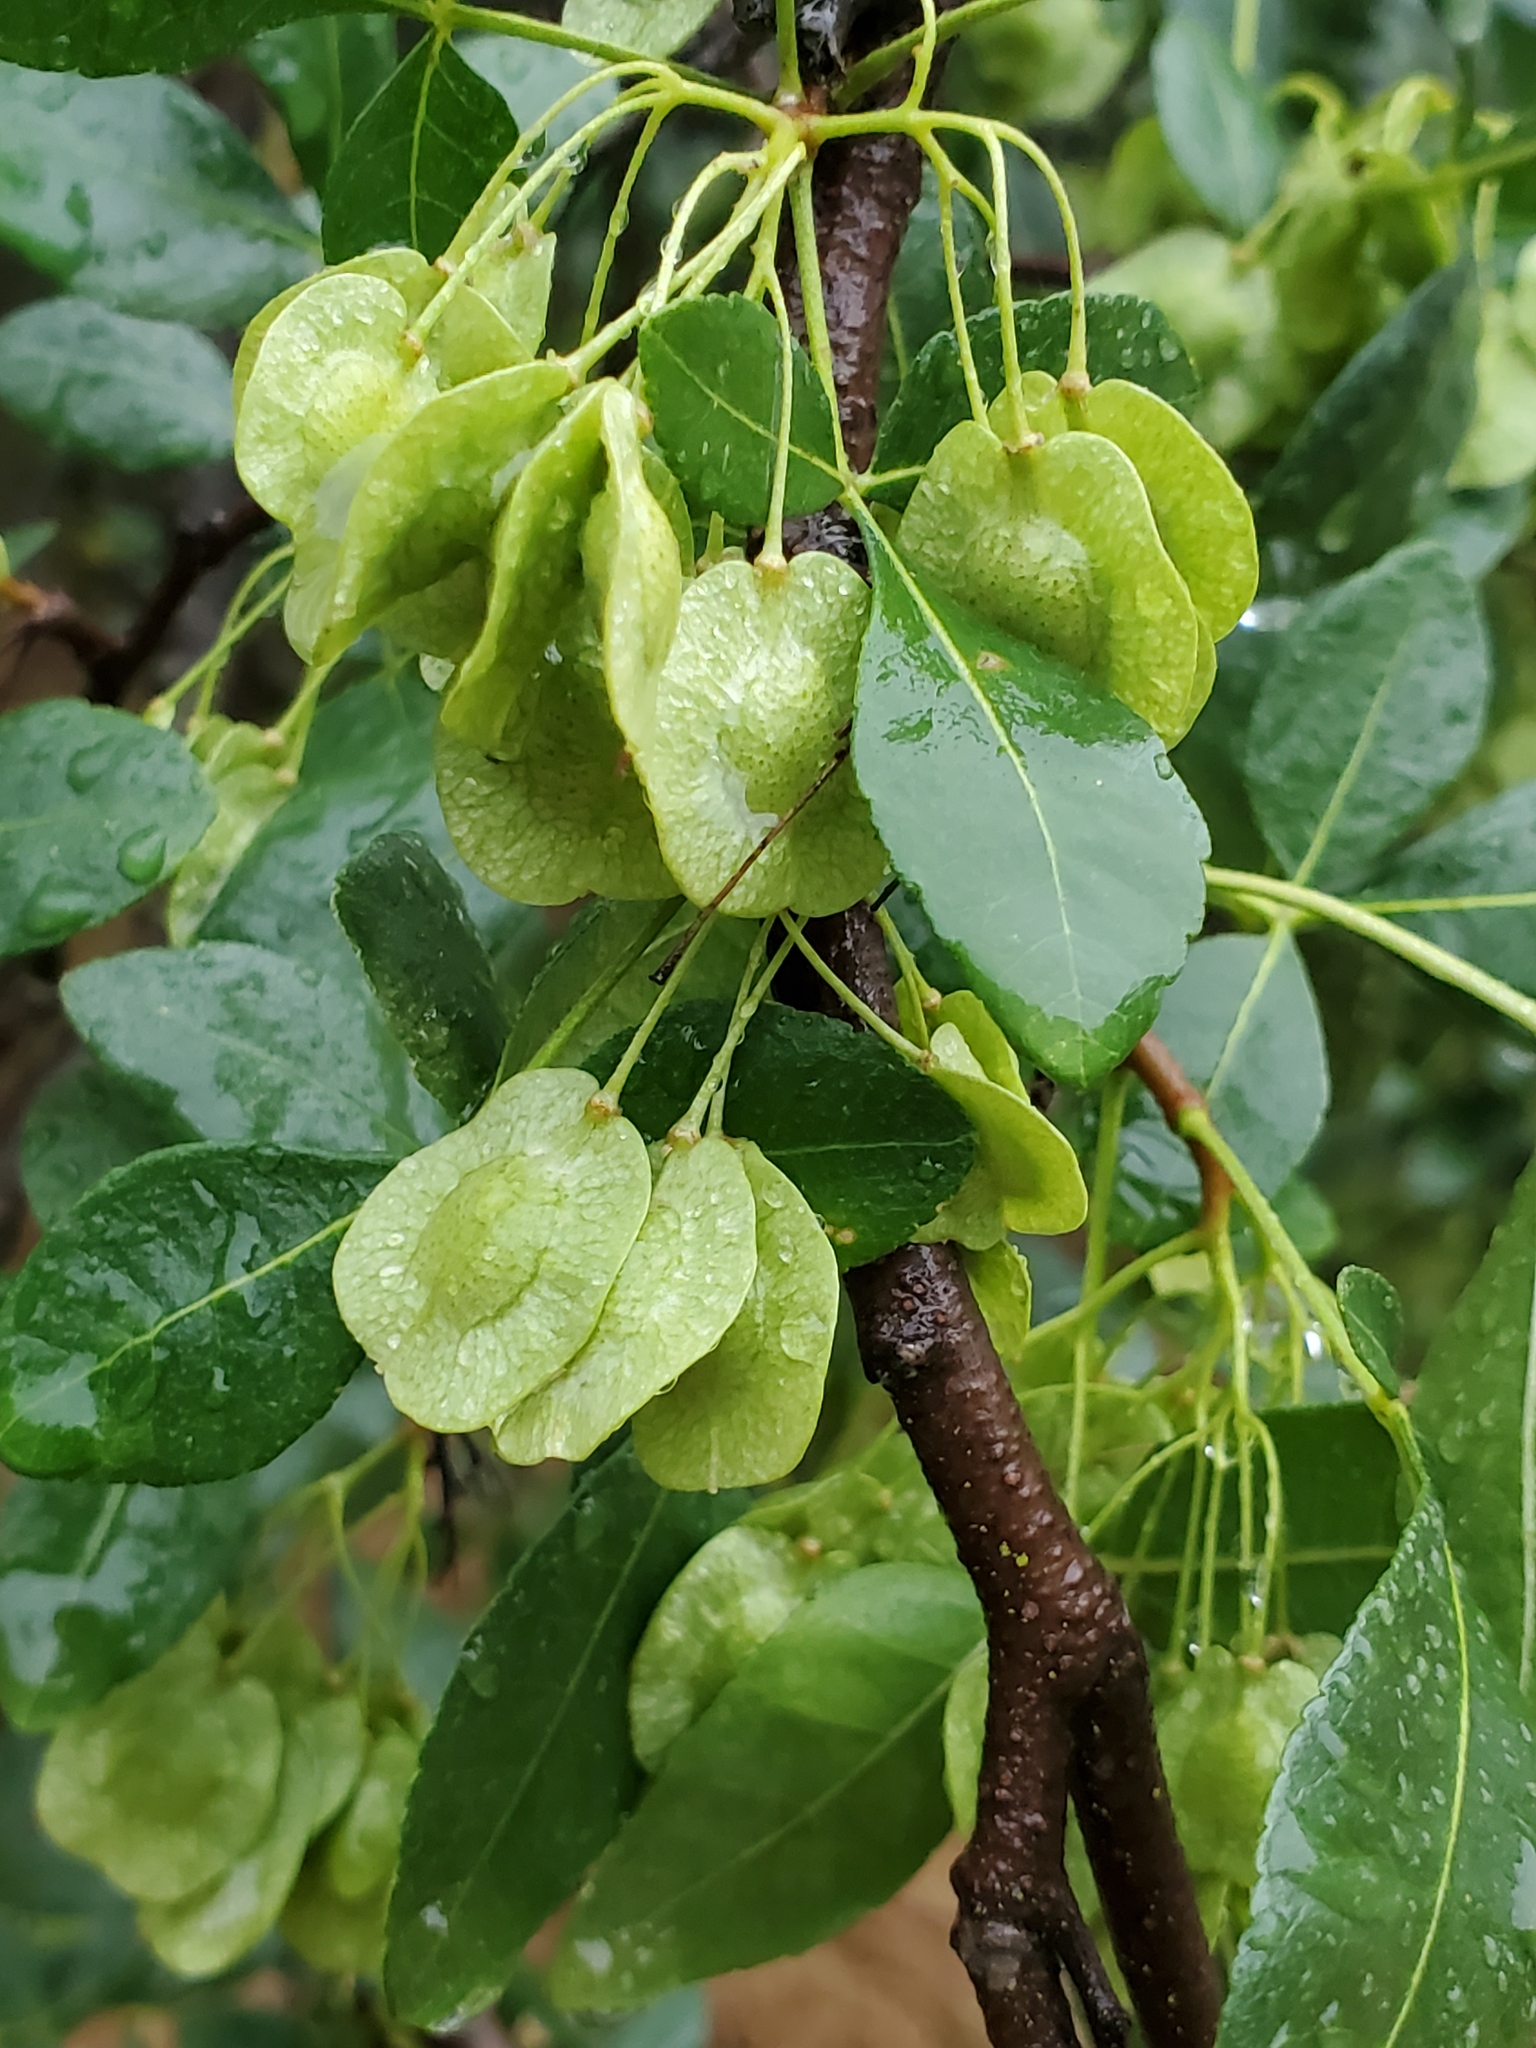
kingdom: Plantae
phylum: Tracheophyta
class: Magnoliopsida
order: Sapindales
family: Rutaceae
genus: Ptelea
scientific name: Ptelea crenulata
